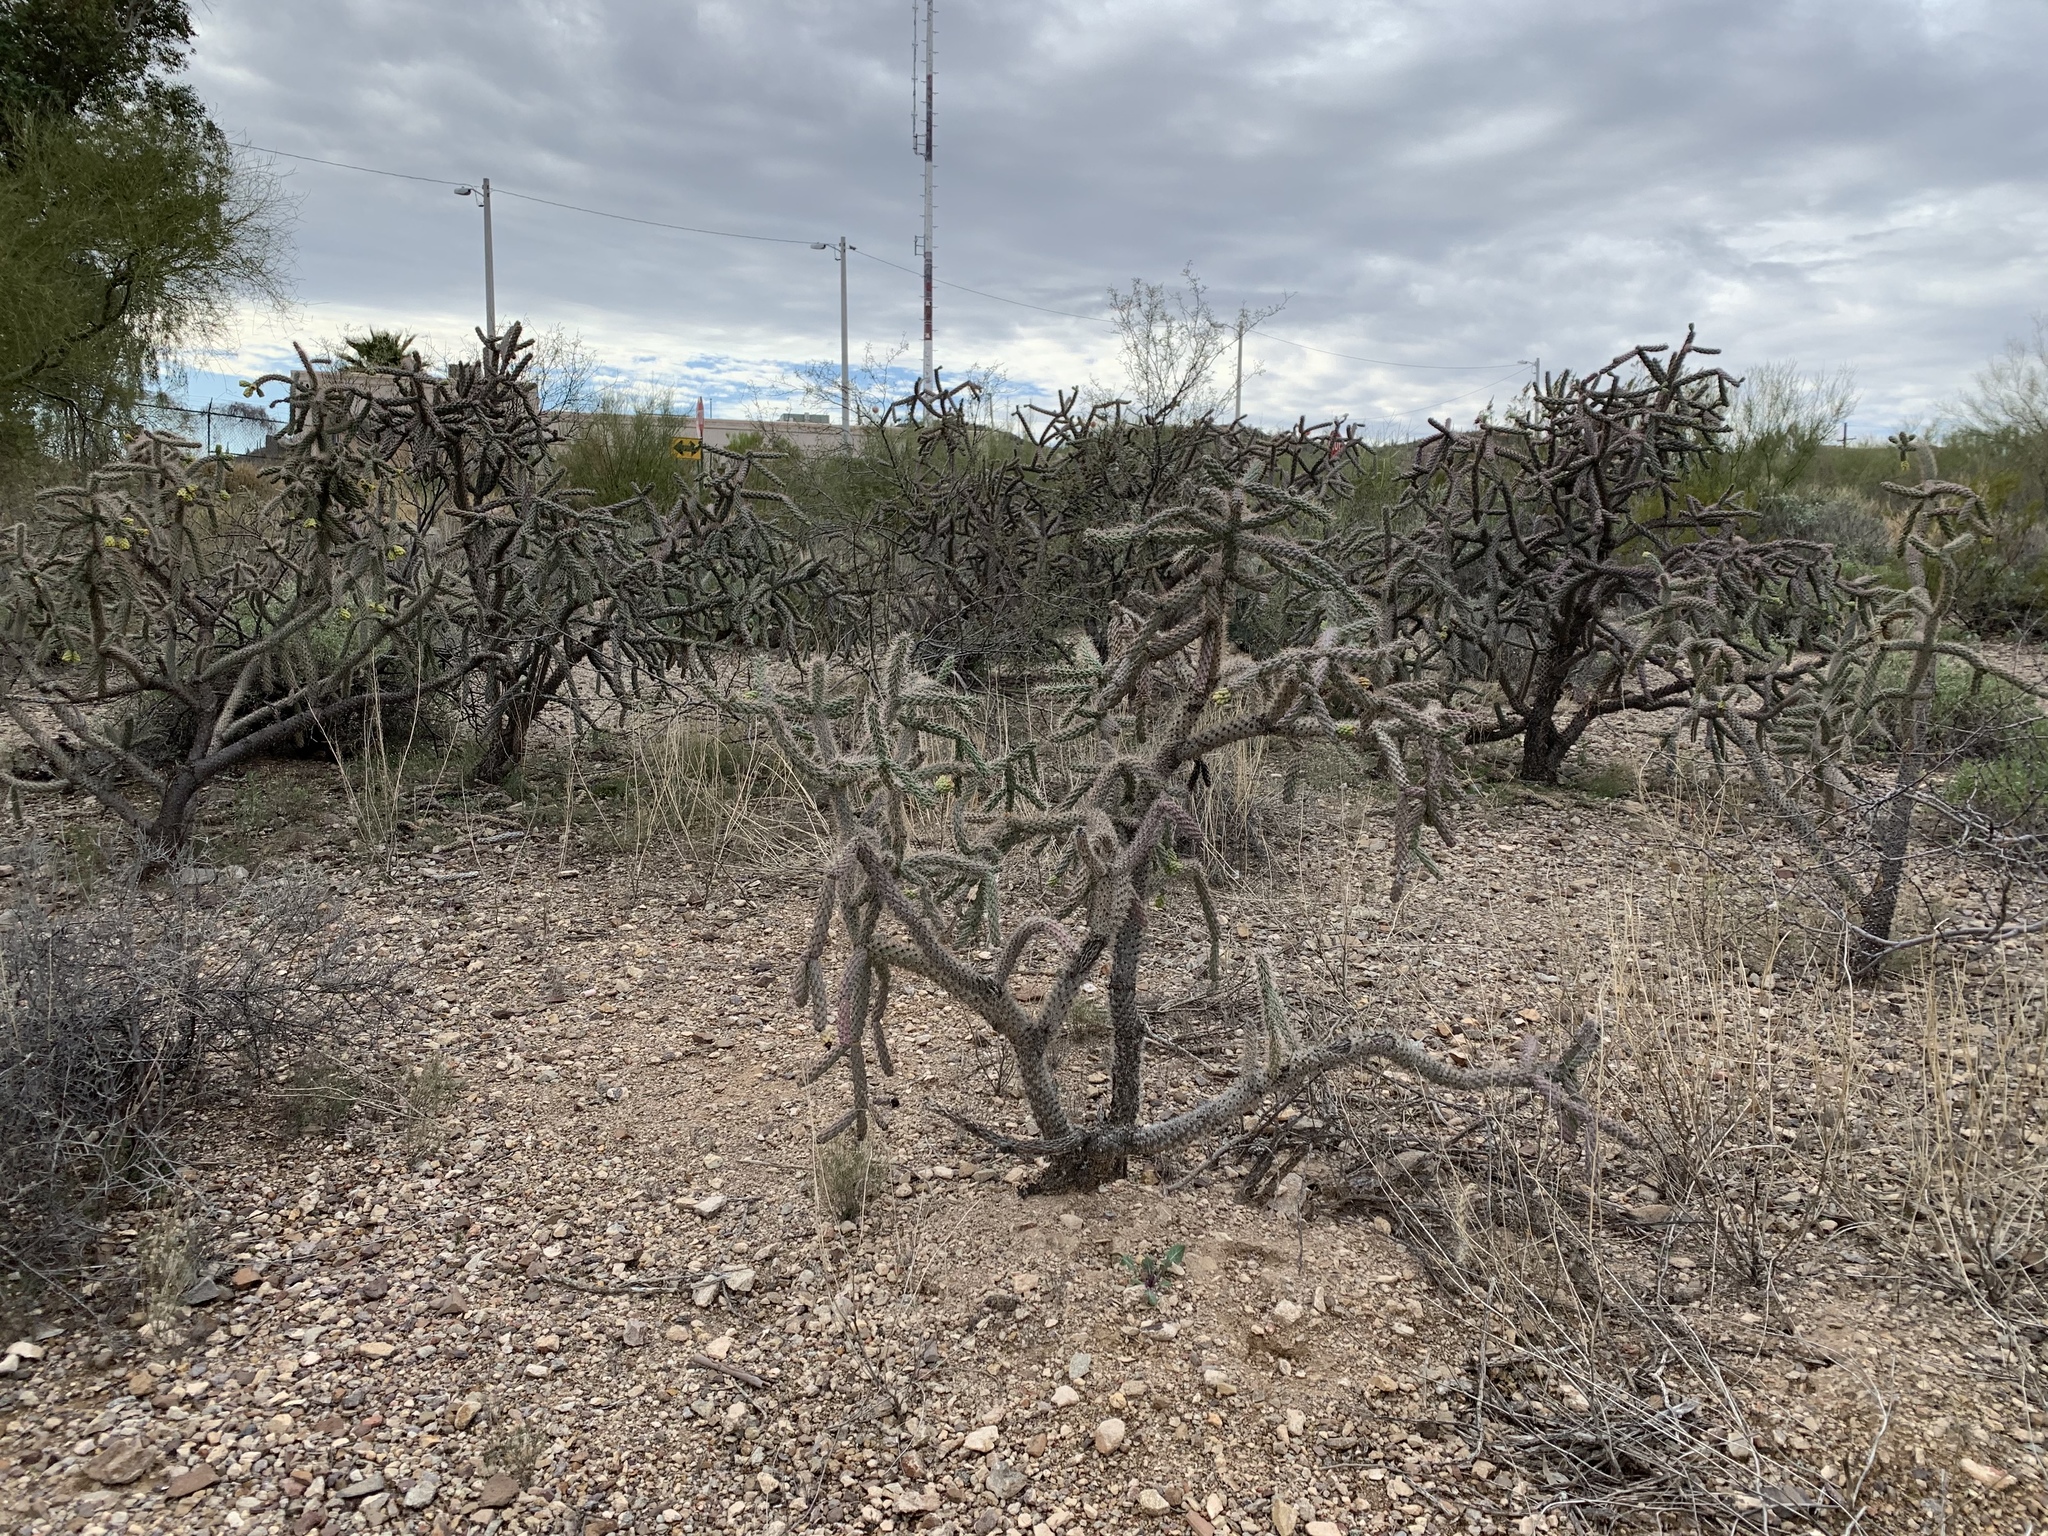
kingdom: Plantae
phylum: Tracheophyta
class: Magnoliopsida
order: Caryophyllales
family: Cactaceae
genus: Cylindropuntia
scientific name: Cylindropuntia imbricata
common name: Candelabrum cactus
